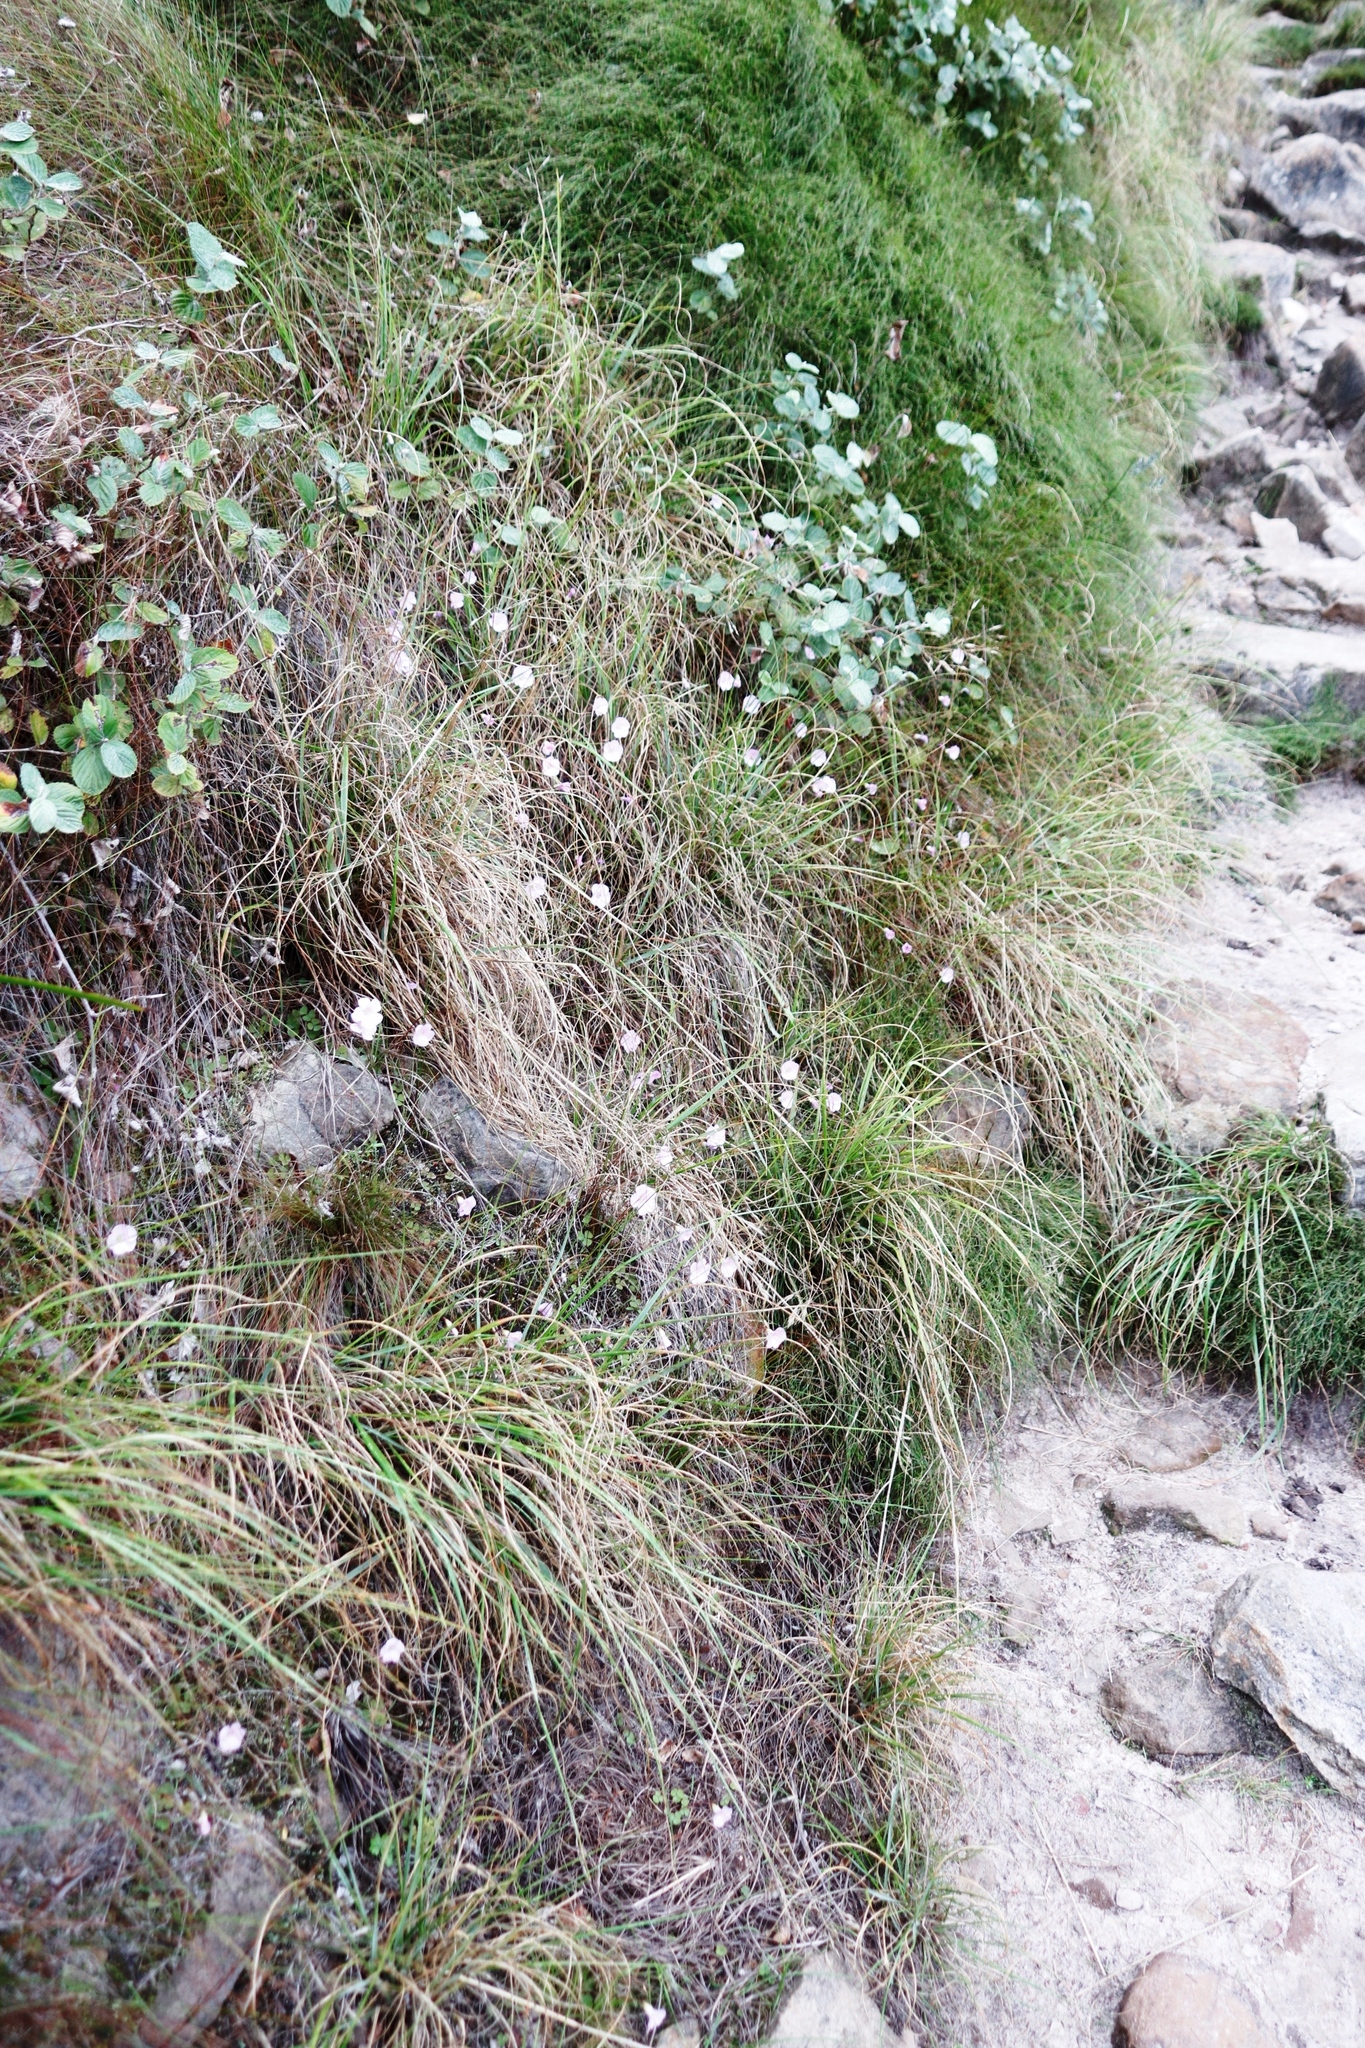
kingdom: Plantae
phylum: Tracheophyta
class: Magnoliopsida
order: Oxalidales
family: Oxalidaceae
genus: Oxalis
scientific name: Oxalis commutata
